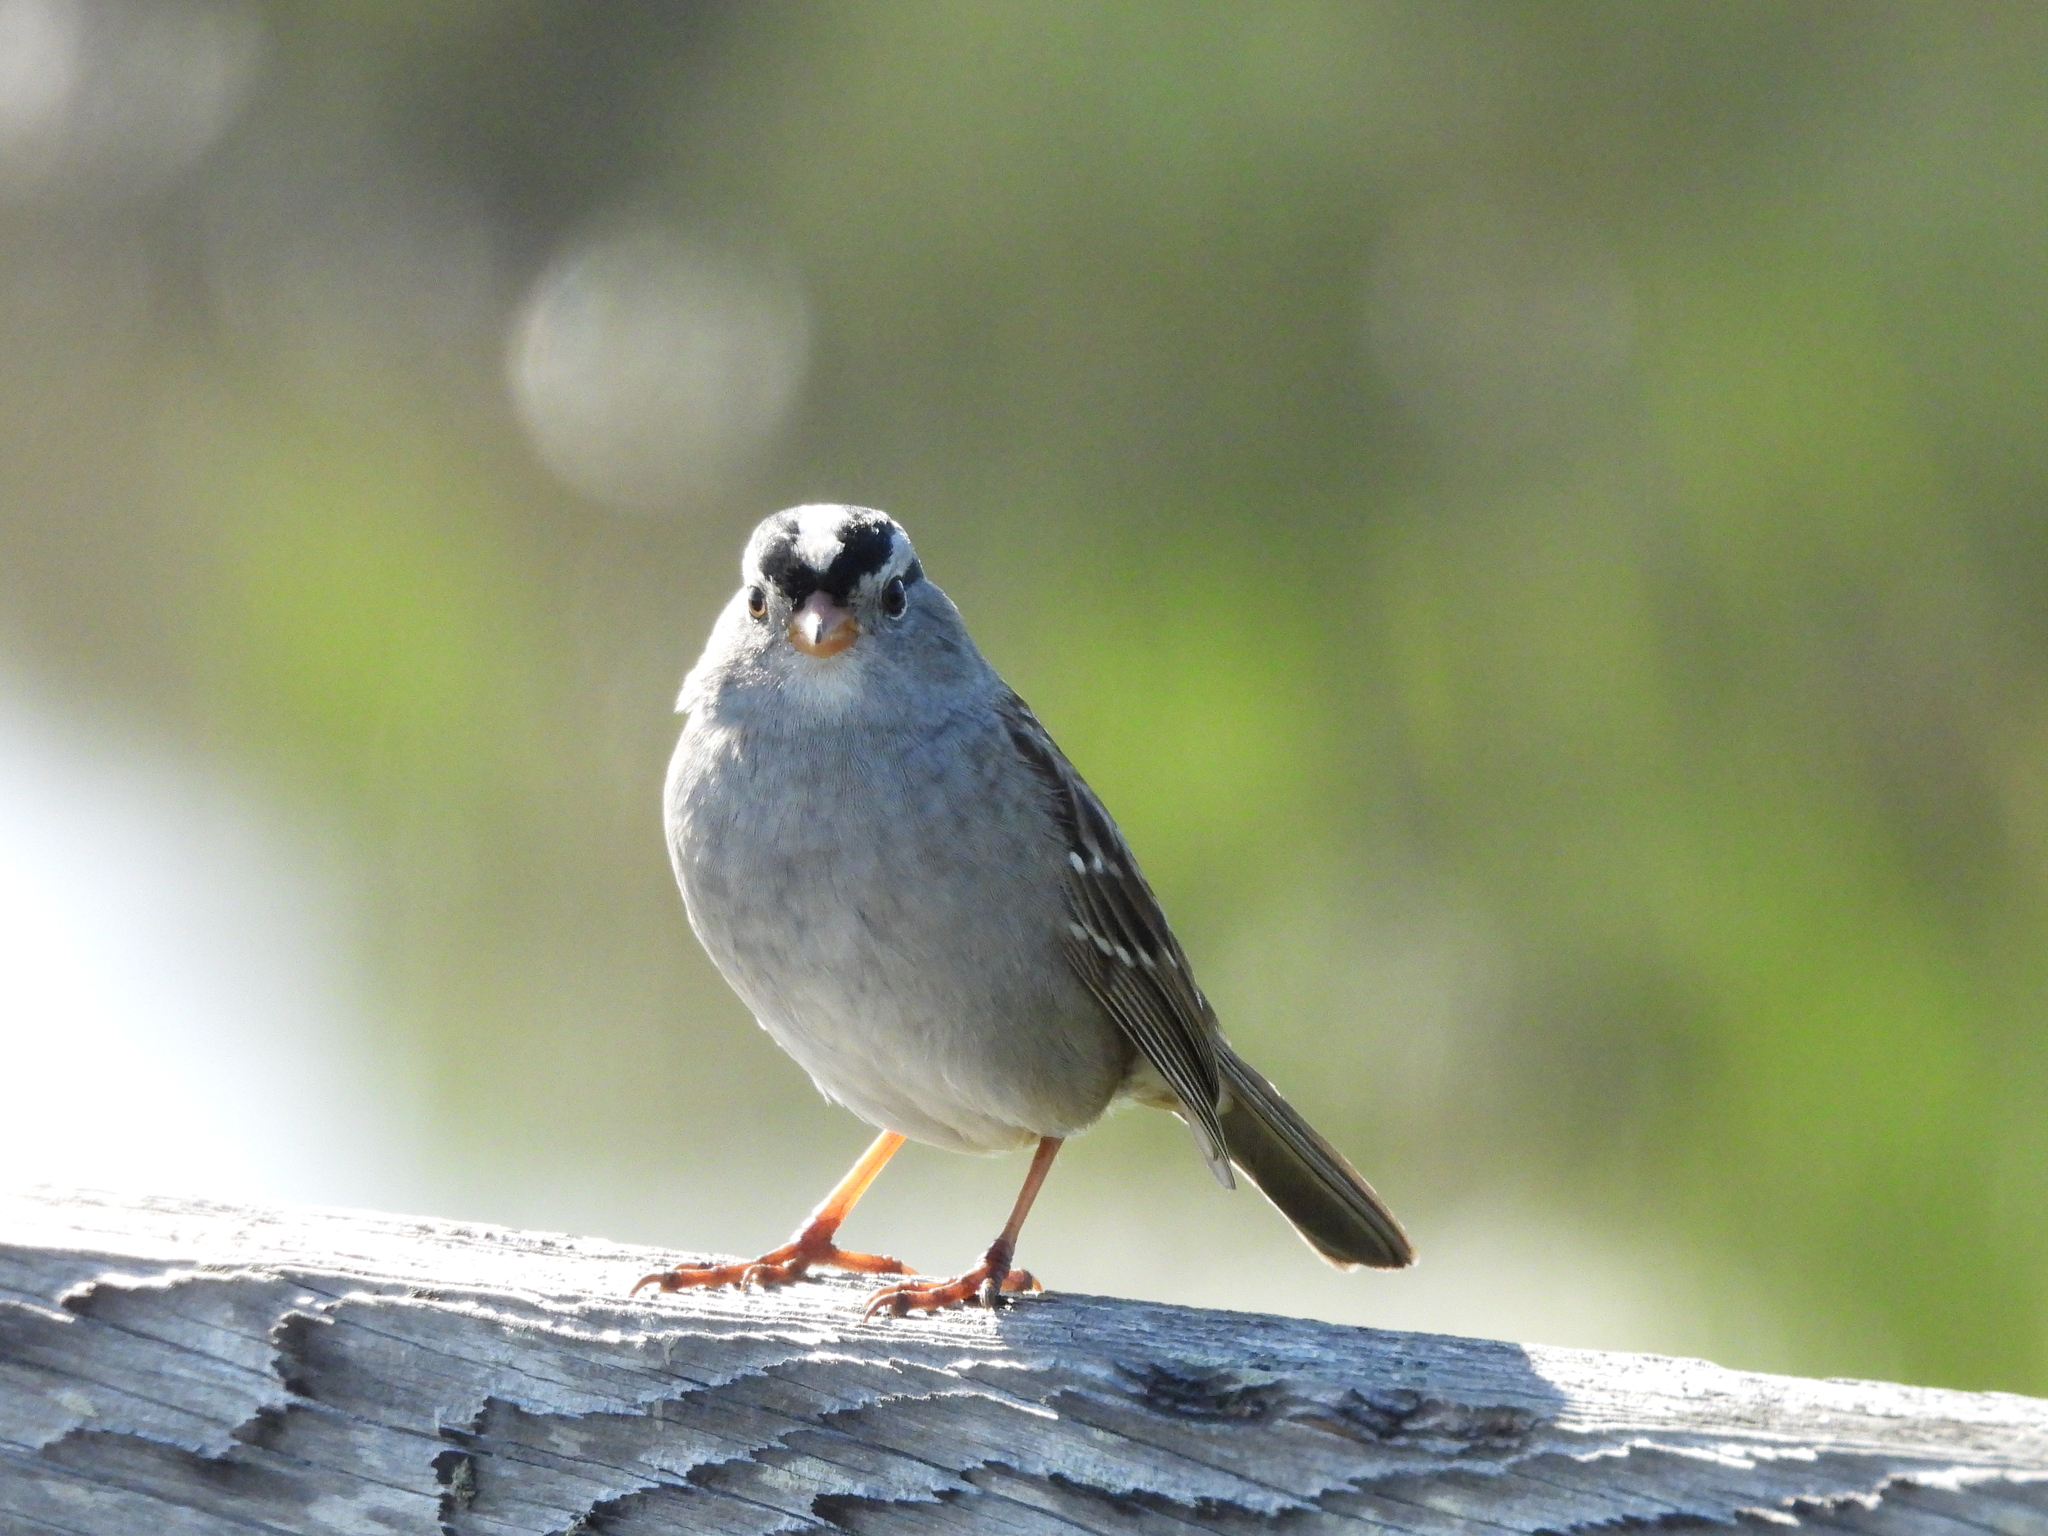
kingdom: Animalia
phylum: Chordata
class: Aves
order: Passeriformes
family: Passerellidae
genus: Zonotrichia
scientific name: Zonotrichia leucophrys
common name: White-crowned sparrow
